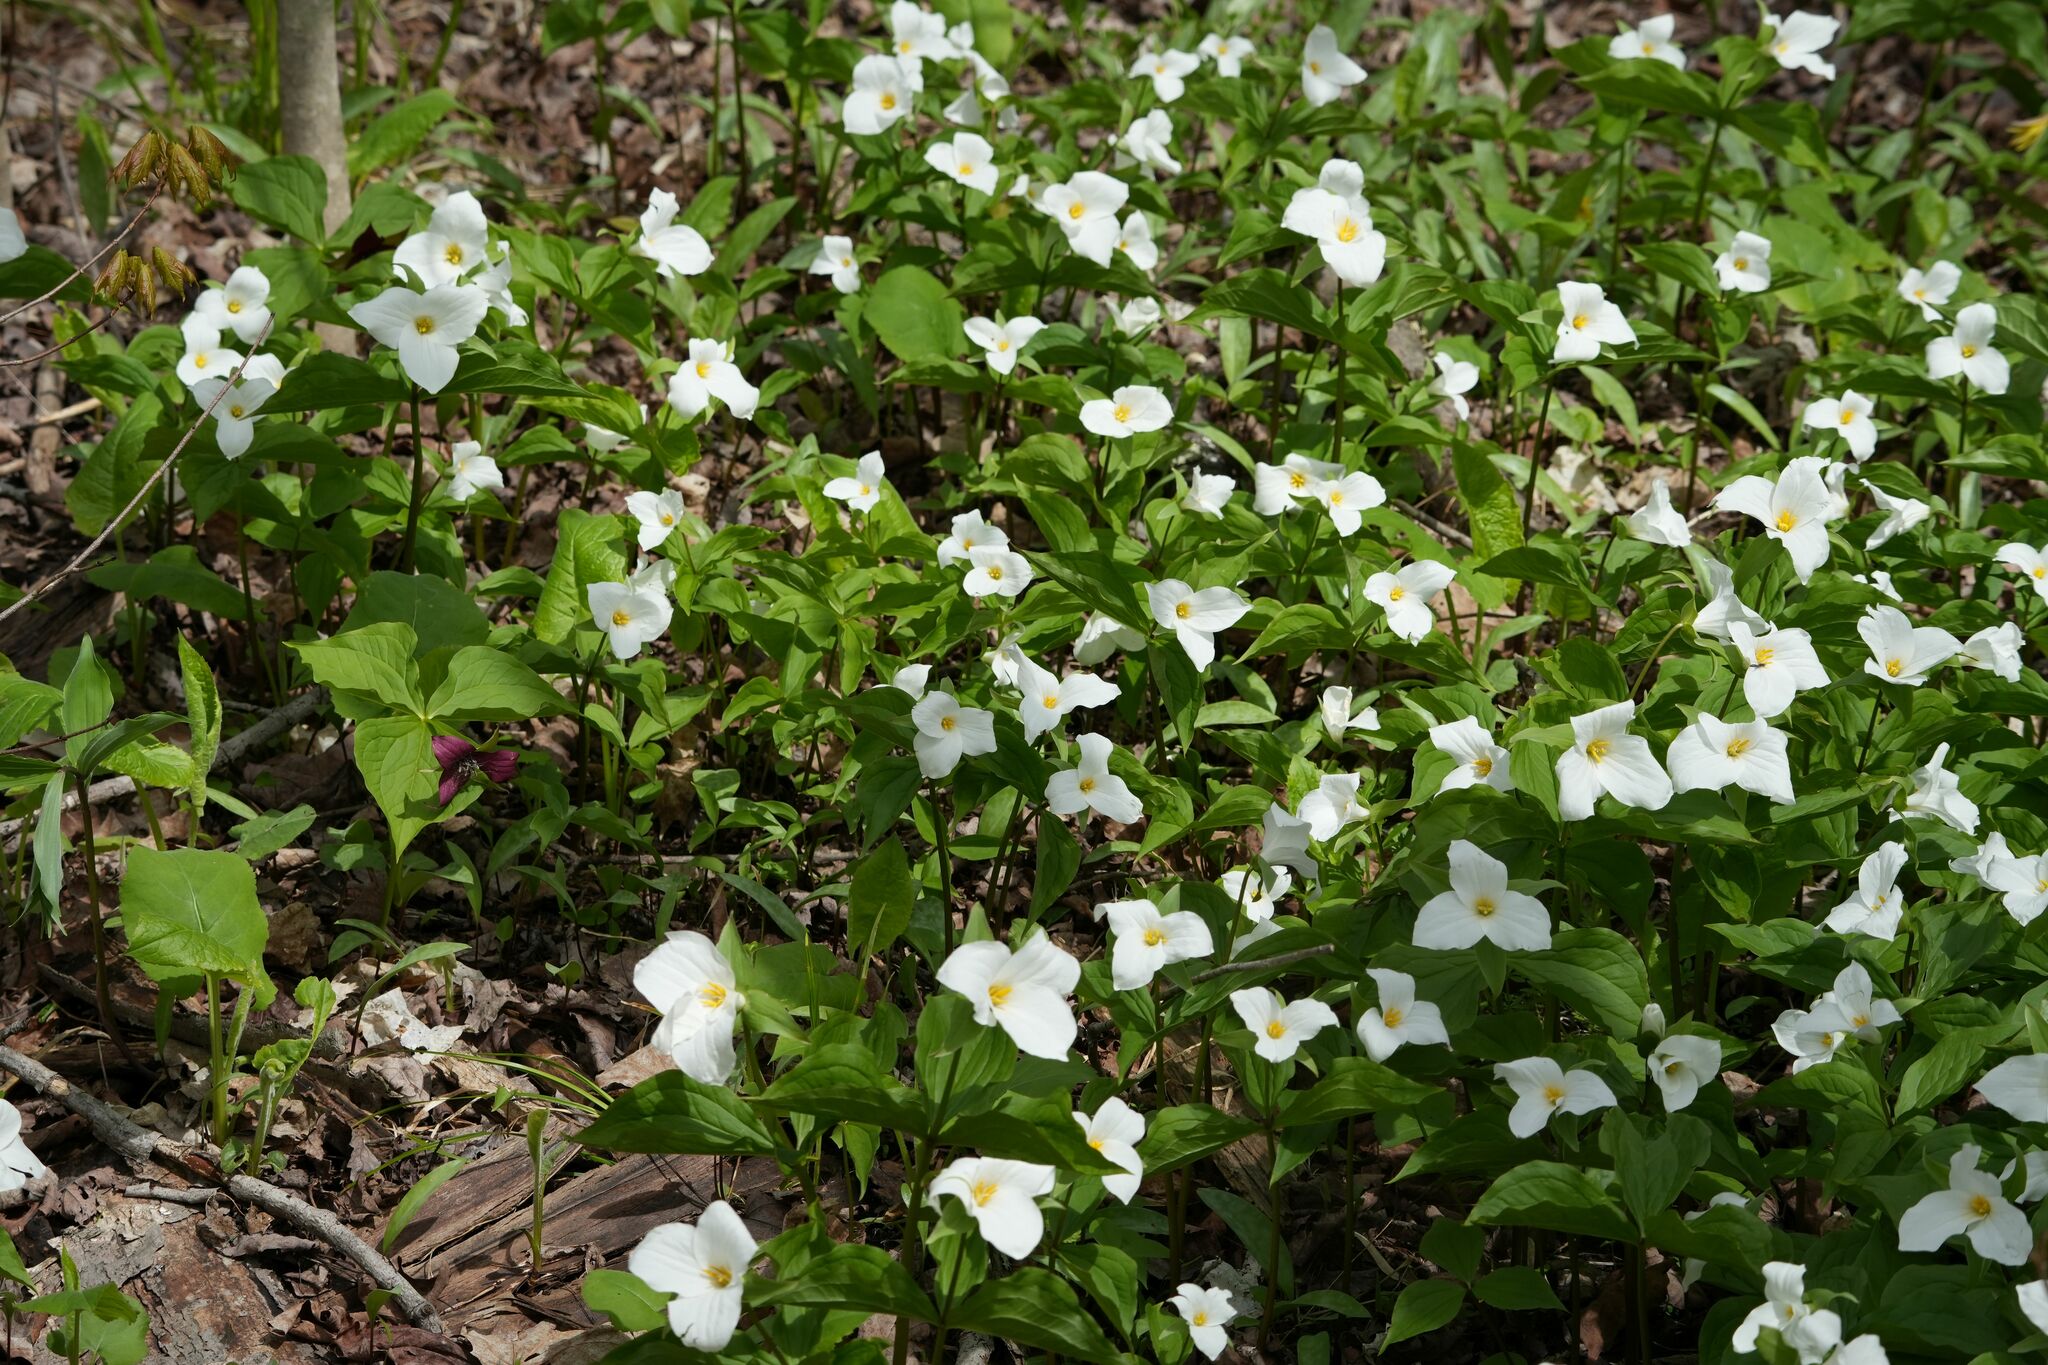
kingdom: Plantae
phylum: Tracheophyta
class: Liliopsida
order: Liliales
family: Melanthiaceae
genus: Trillium
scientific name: Trillium grandiflorum
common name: Great white trillium
